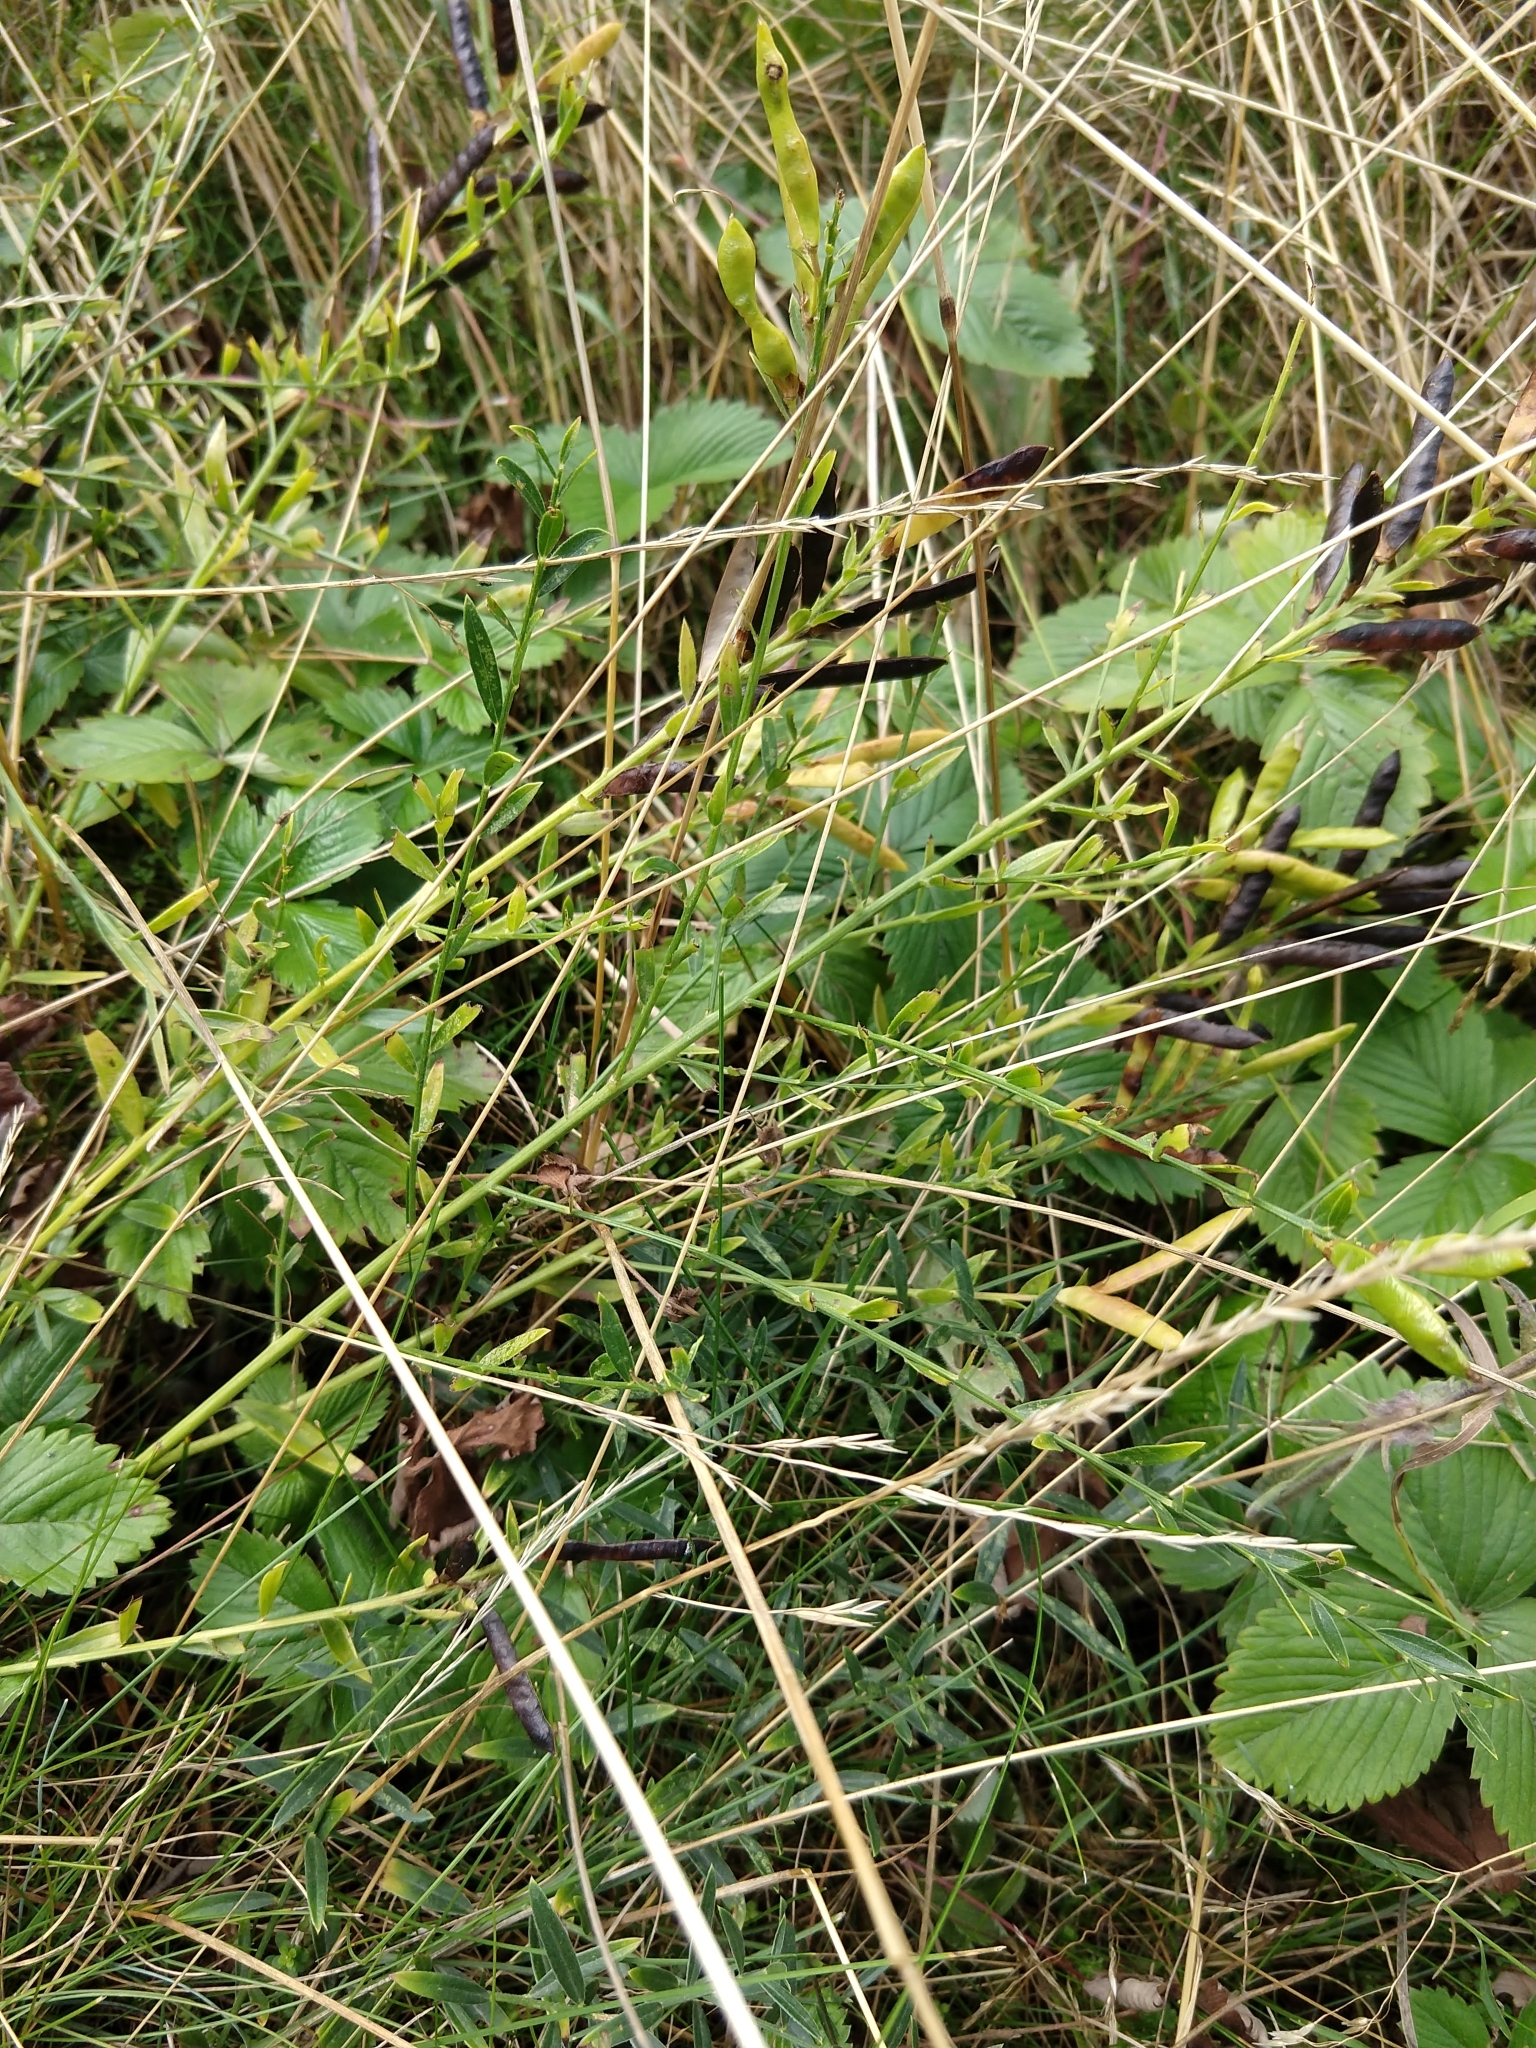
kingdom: Plantae
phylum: Tracheophyta
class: Magnoliopsida
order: Fabales
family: Fabaceae
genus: Genista
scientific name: Genista tinctoria
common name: Dyer's greenweed
